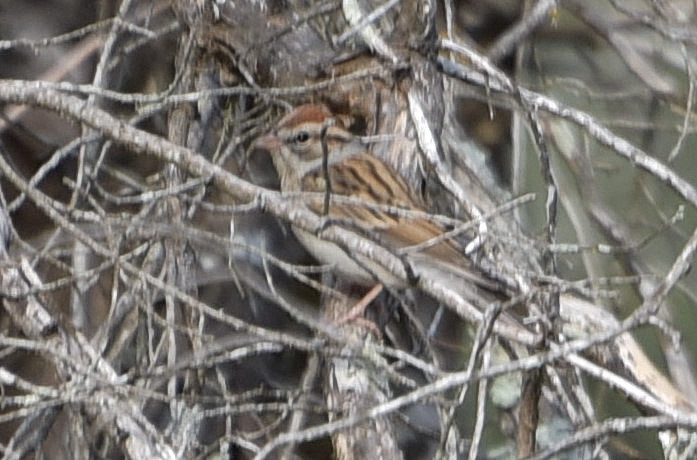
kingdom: Animalia
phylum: Chordata
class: Aves
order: Passeriformes
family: Passerellidae
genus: Spizella
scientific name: Spizella passerina
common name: Chipping sparrow
